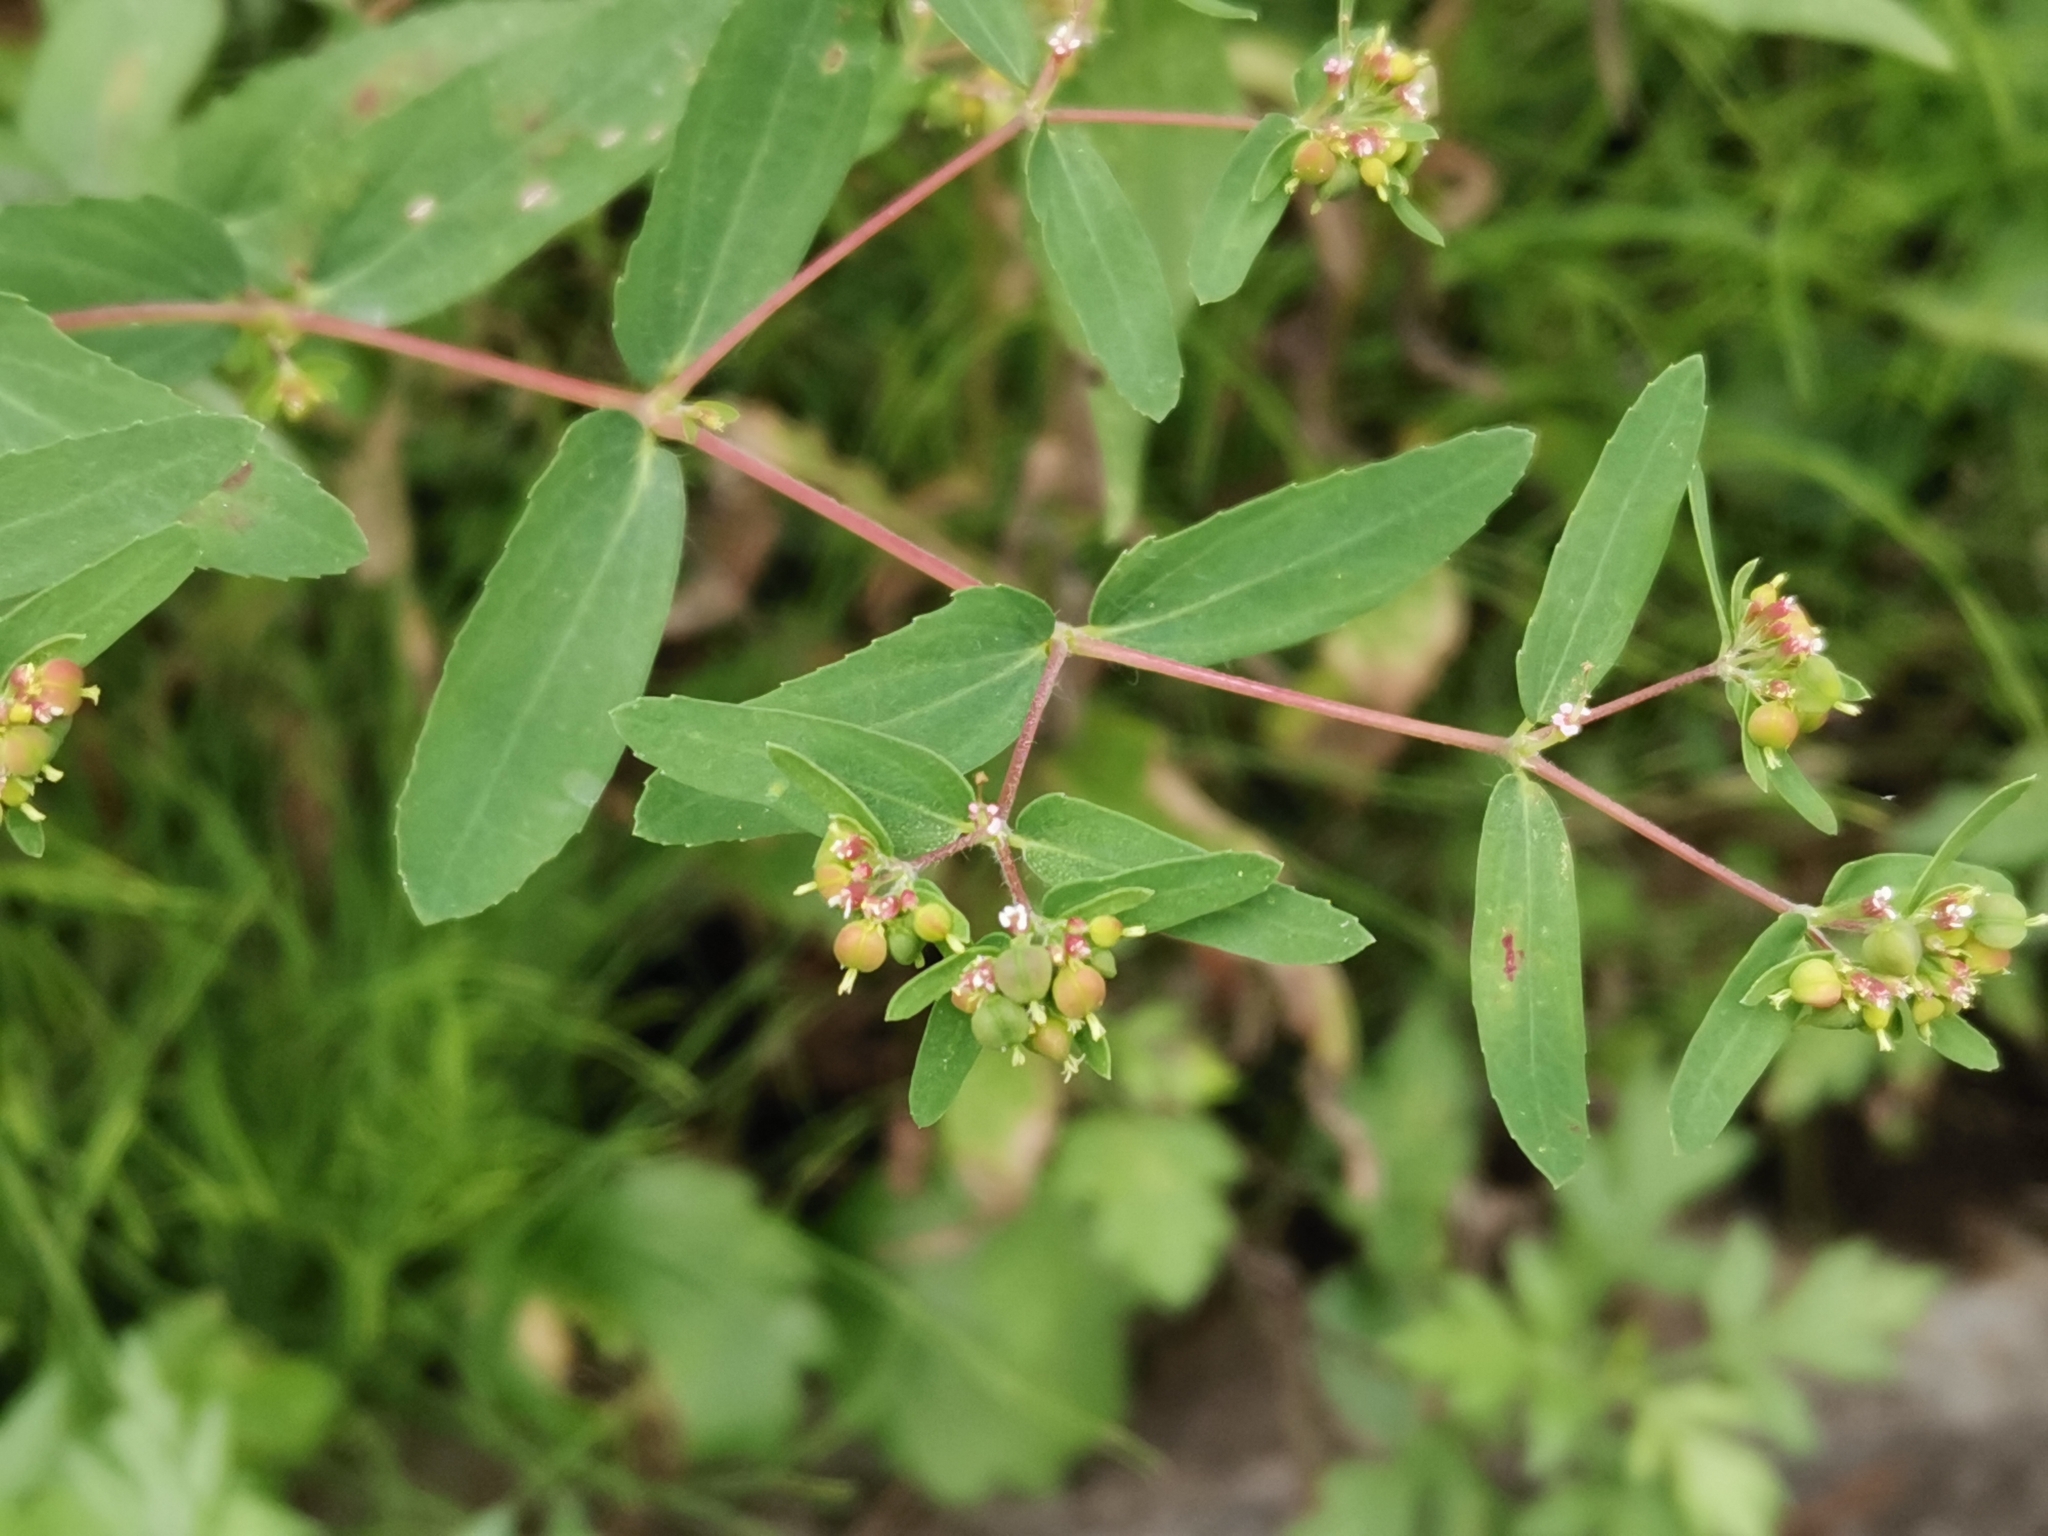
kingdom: Plantae
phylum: Tracheophyta
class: Magnoliopsida
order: Malpighiales
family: Euphorbiaceae
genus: Euphorbia
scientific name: Euphorbia nutans
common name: Eyebane
